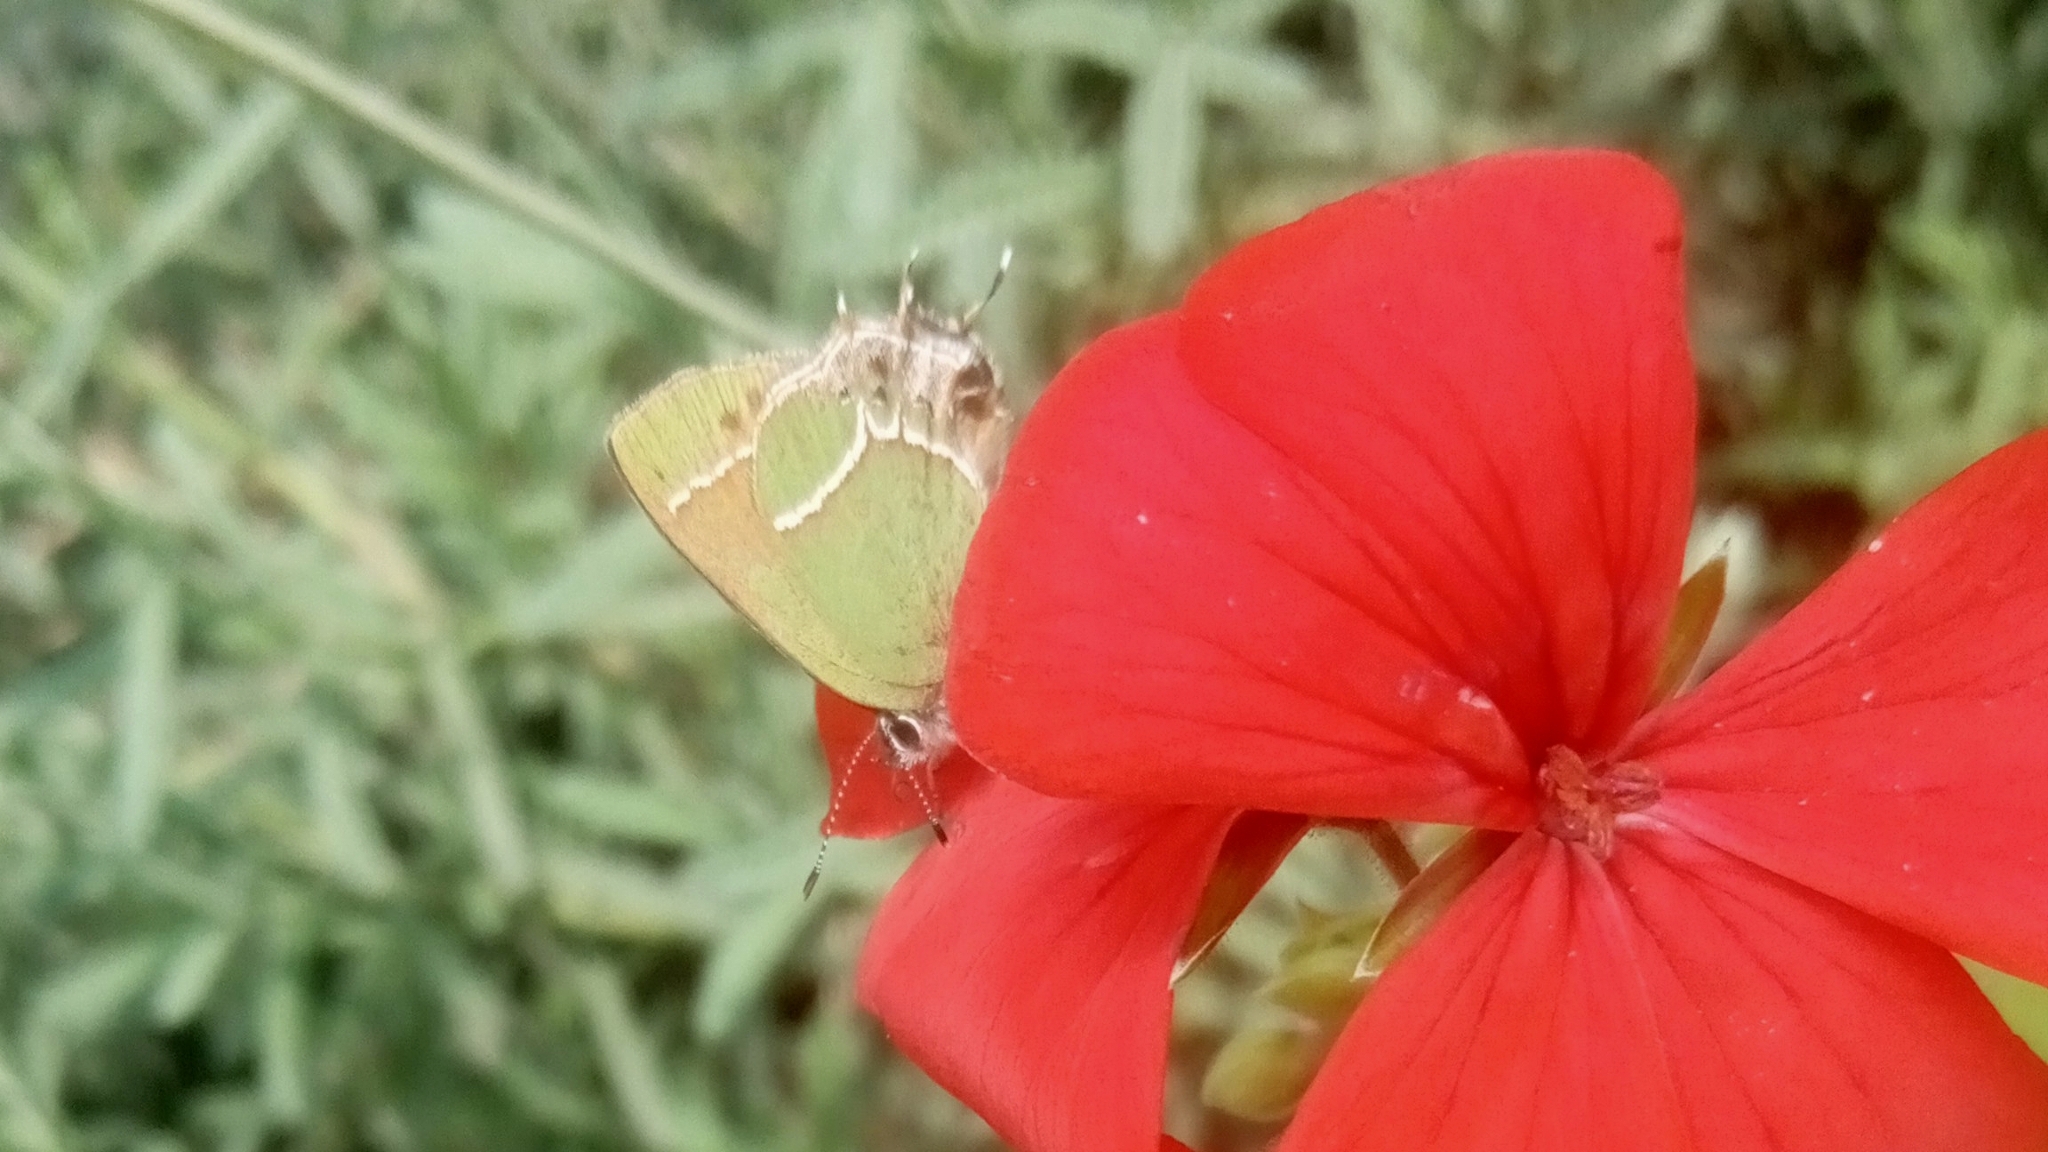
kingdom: Animalia
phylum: Arthropoda
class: Insecta
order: Lepidoptera
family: Lycaenidae
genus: Xamia
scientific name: Xamia xami
